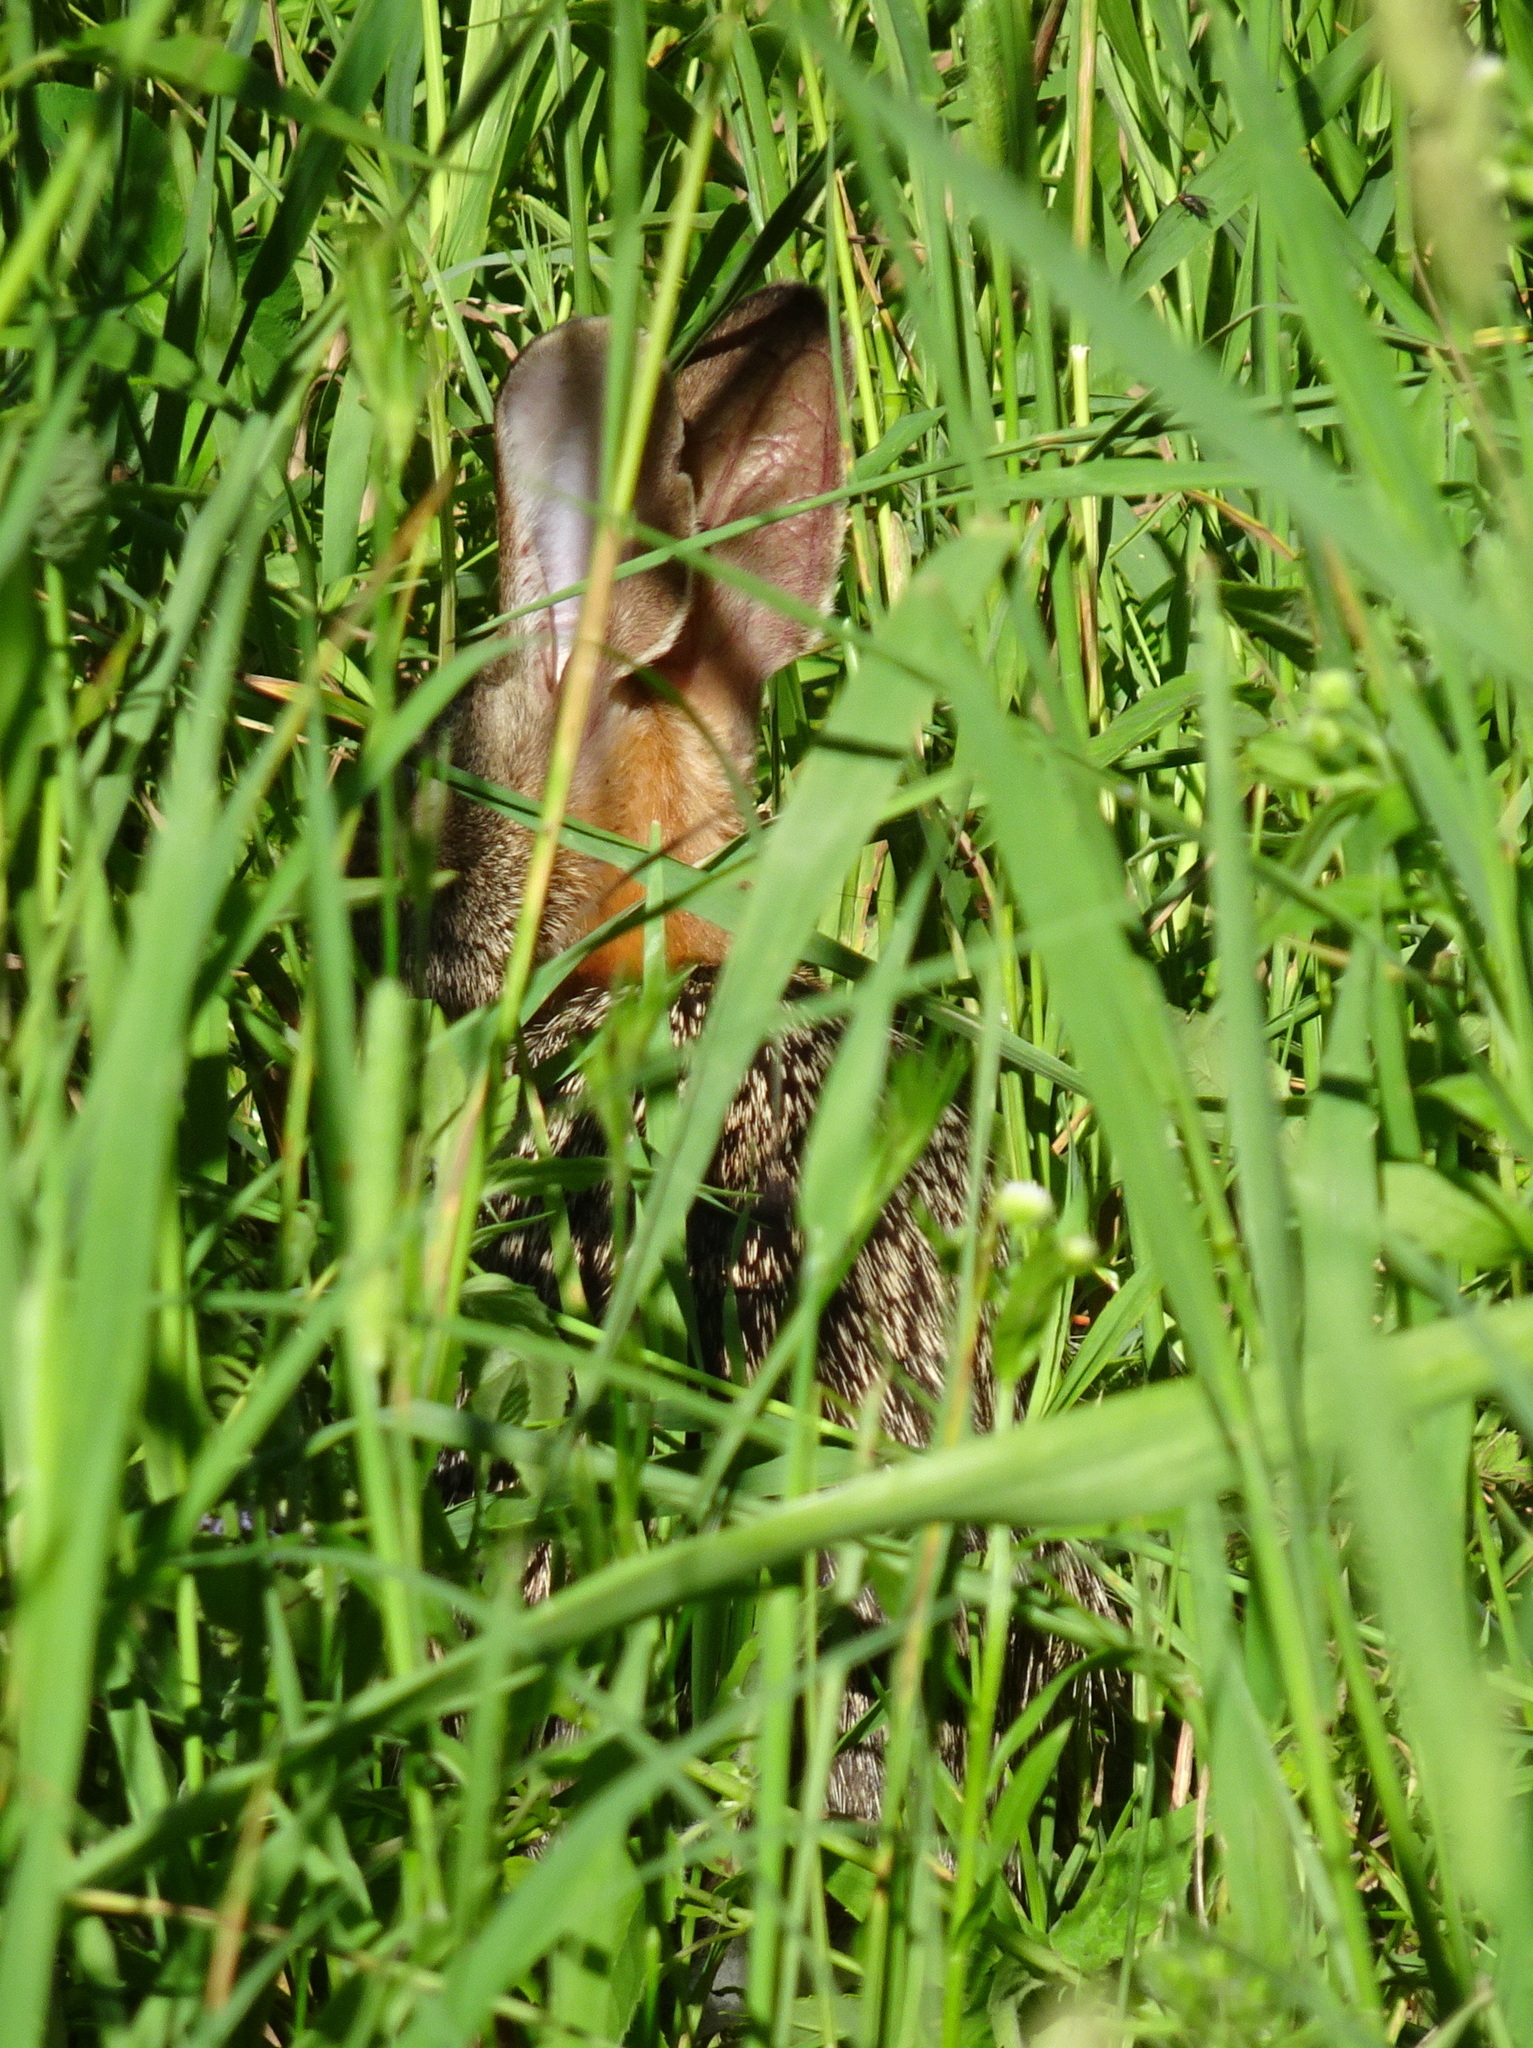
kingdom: Animalia
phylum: Chordata
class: Mammalia
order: Lagomorpha
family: Leporidae
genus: Sylvilagus
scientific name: Sylvilagus floridanus
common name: Eastern cottontail
